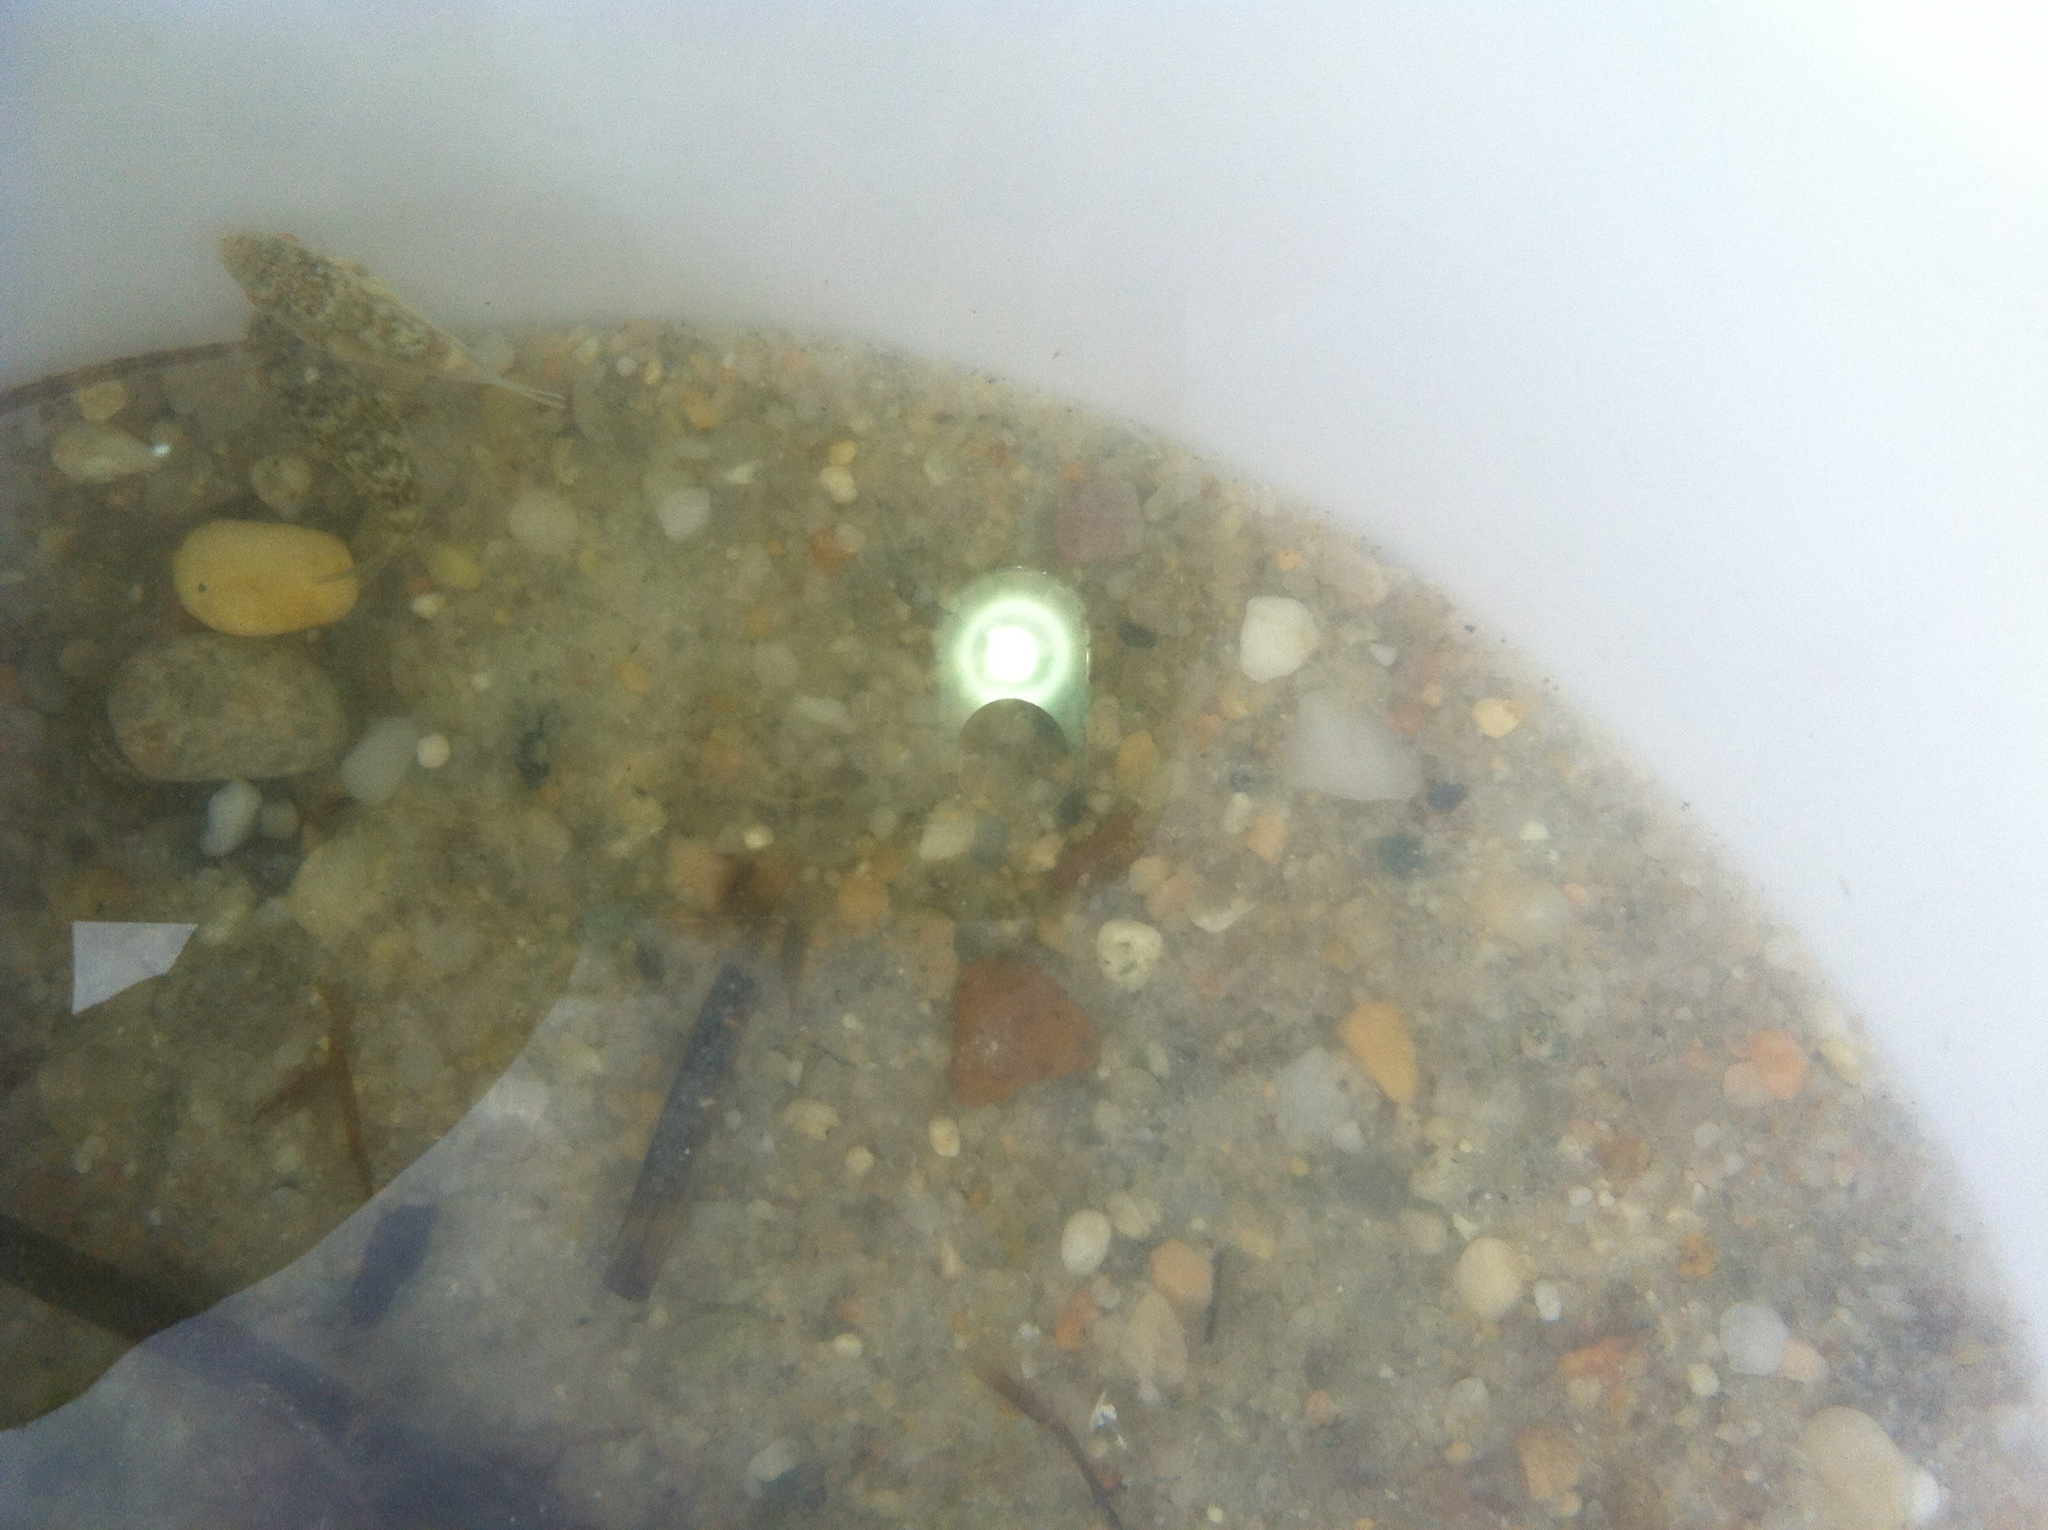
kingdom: Animalia
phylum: Chordata
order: Tetraodontiformes
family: Tetraodontidae
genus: Sphoeroides
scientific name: Sphoeroides maculatus
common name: Northern puffer
